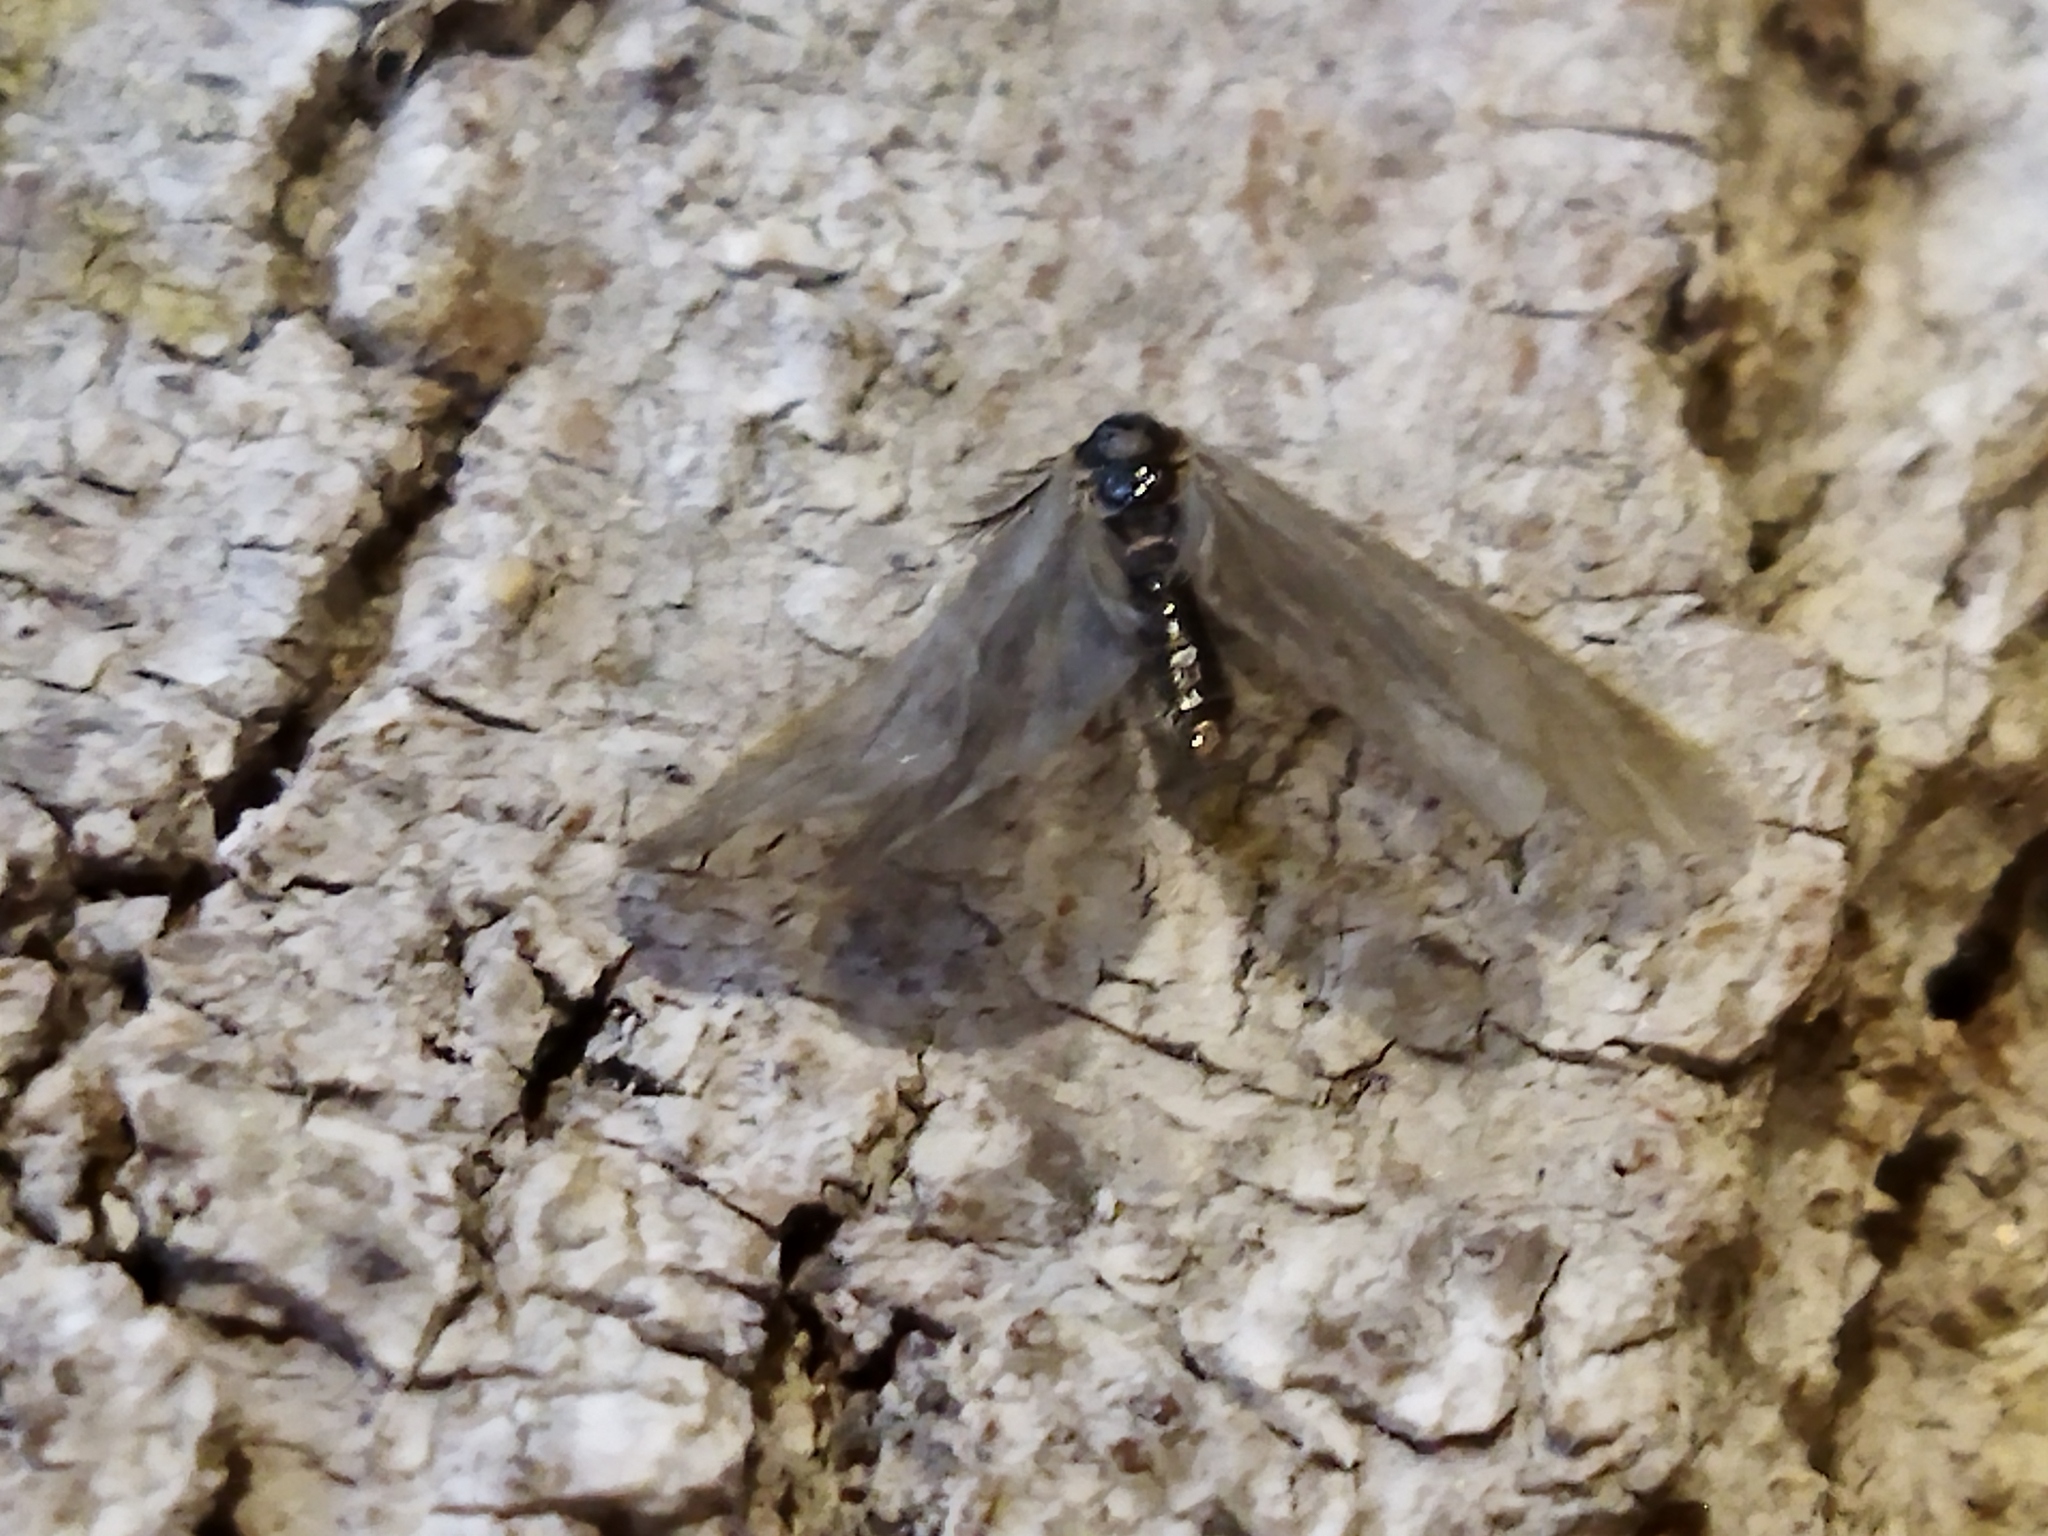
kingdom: Animalia
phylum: Arthropoda
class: Insecta
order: Lepidoptera
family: Psychidae
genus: Rebelia
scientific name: Rebelia perlucidella
